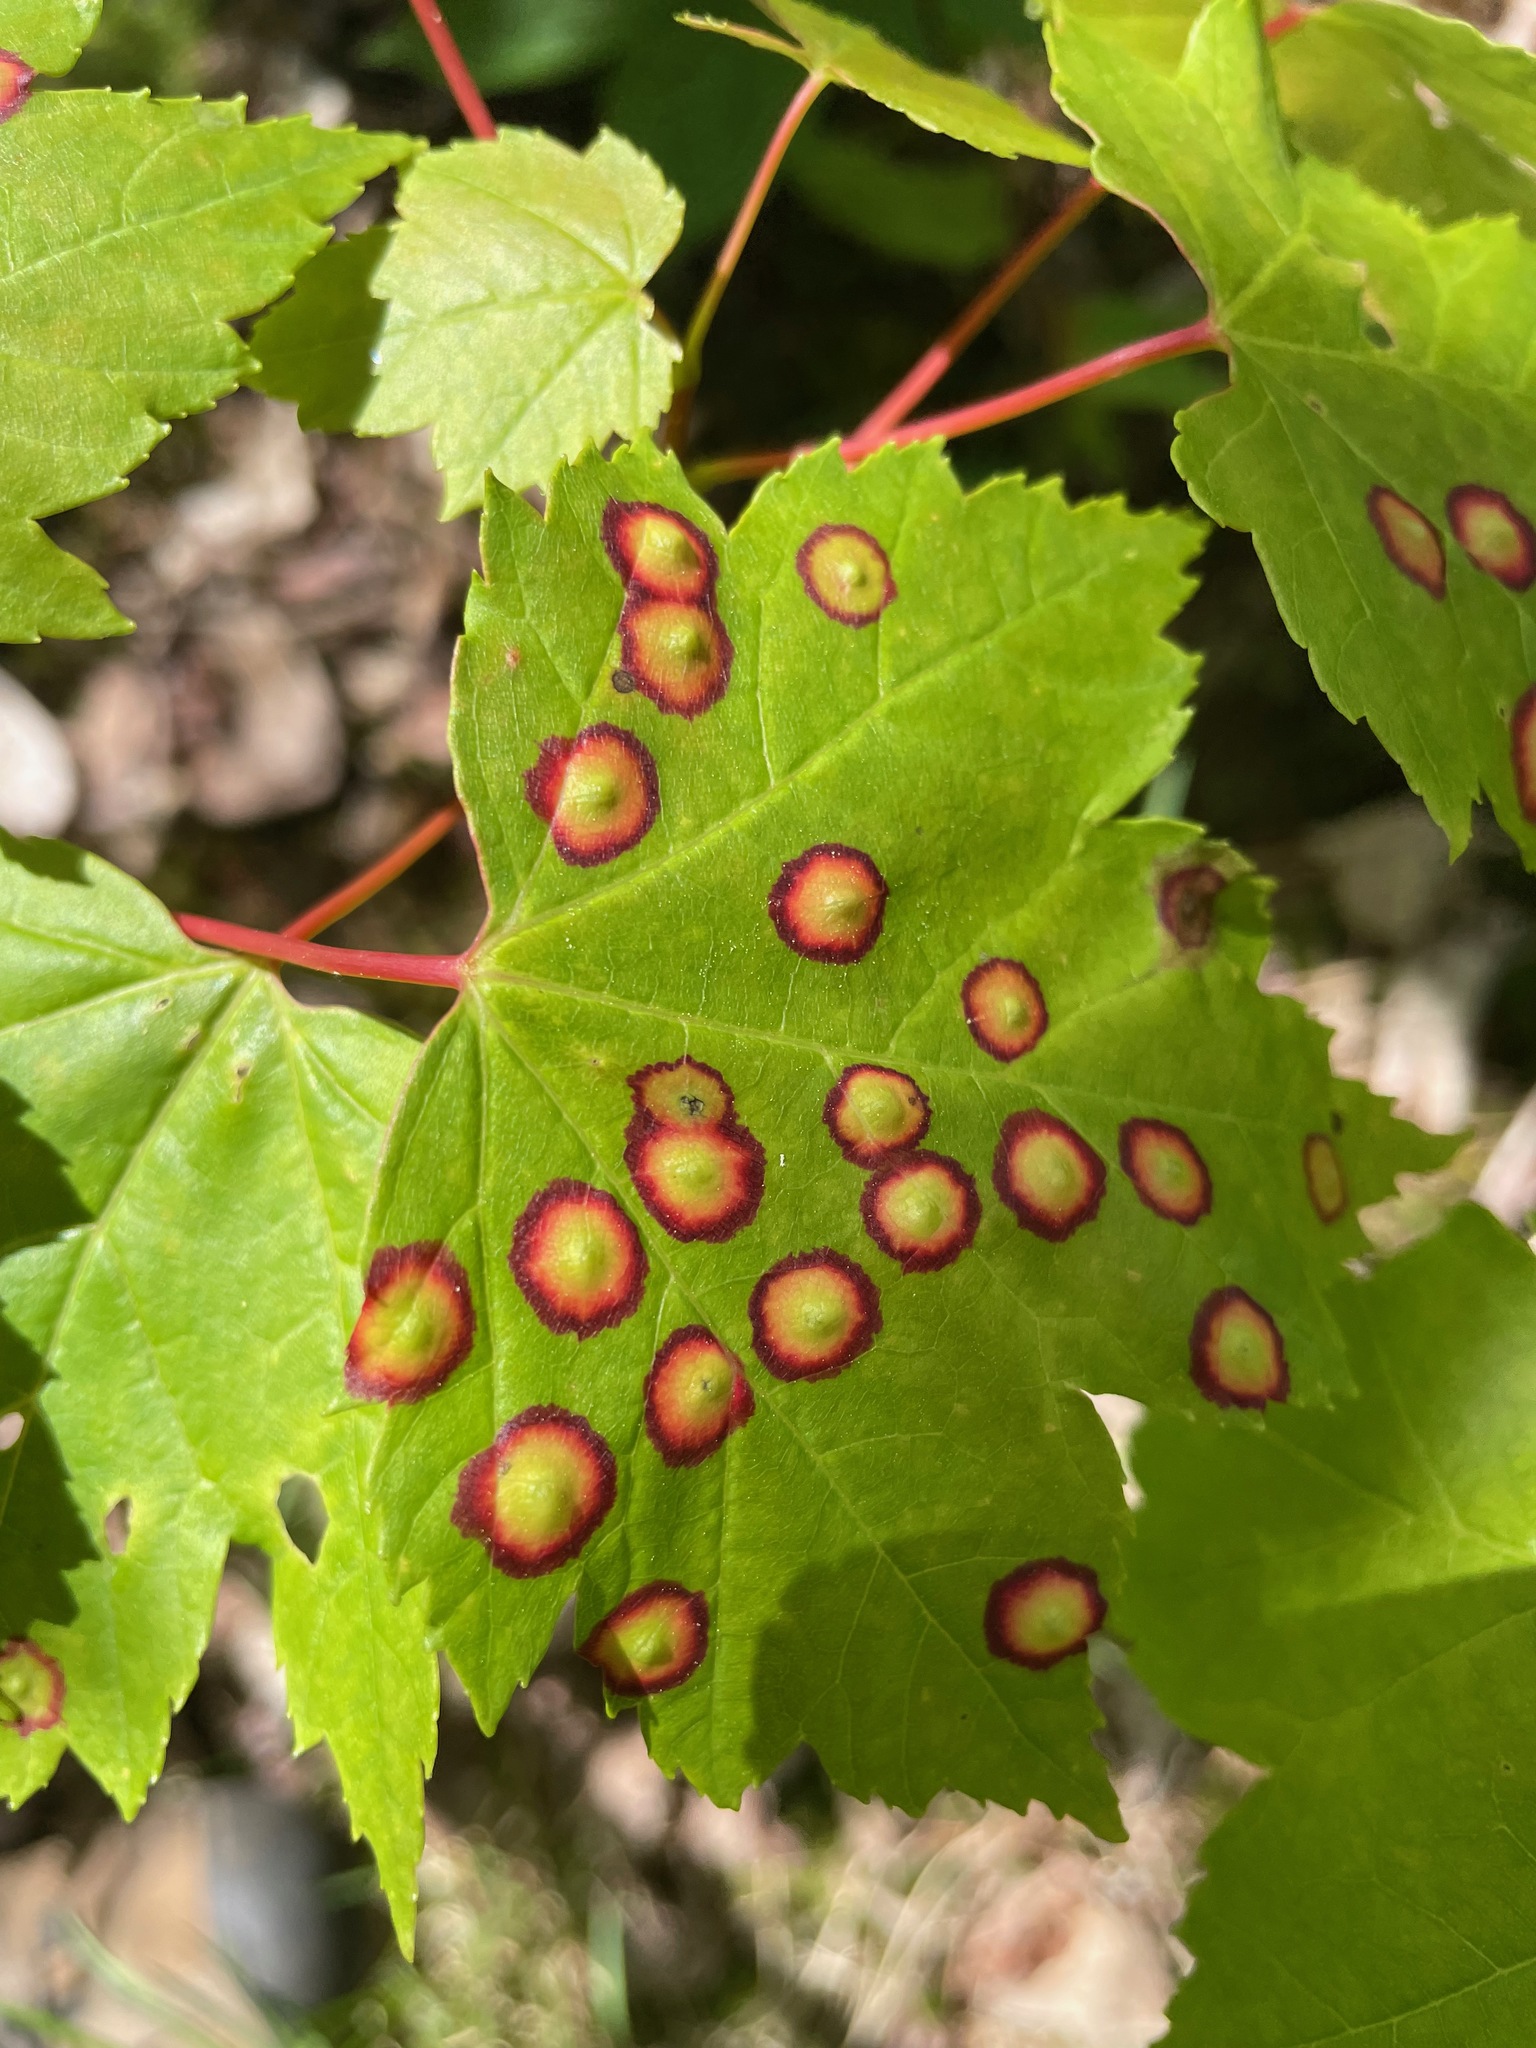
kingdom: Animalia
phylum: Arthropoda
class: Insecta
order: Diptera
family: Cecidomyiidae
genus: Acericecis
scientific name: Acericecis ocellaris
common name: Ocellate gall midge
